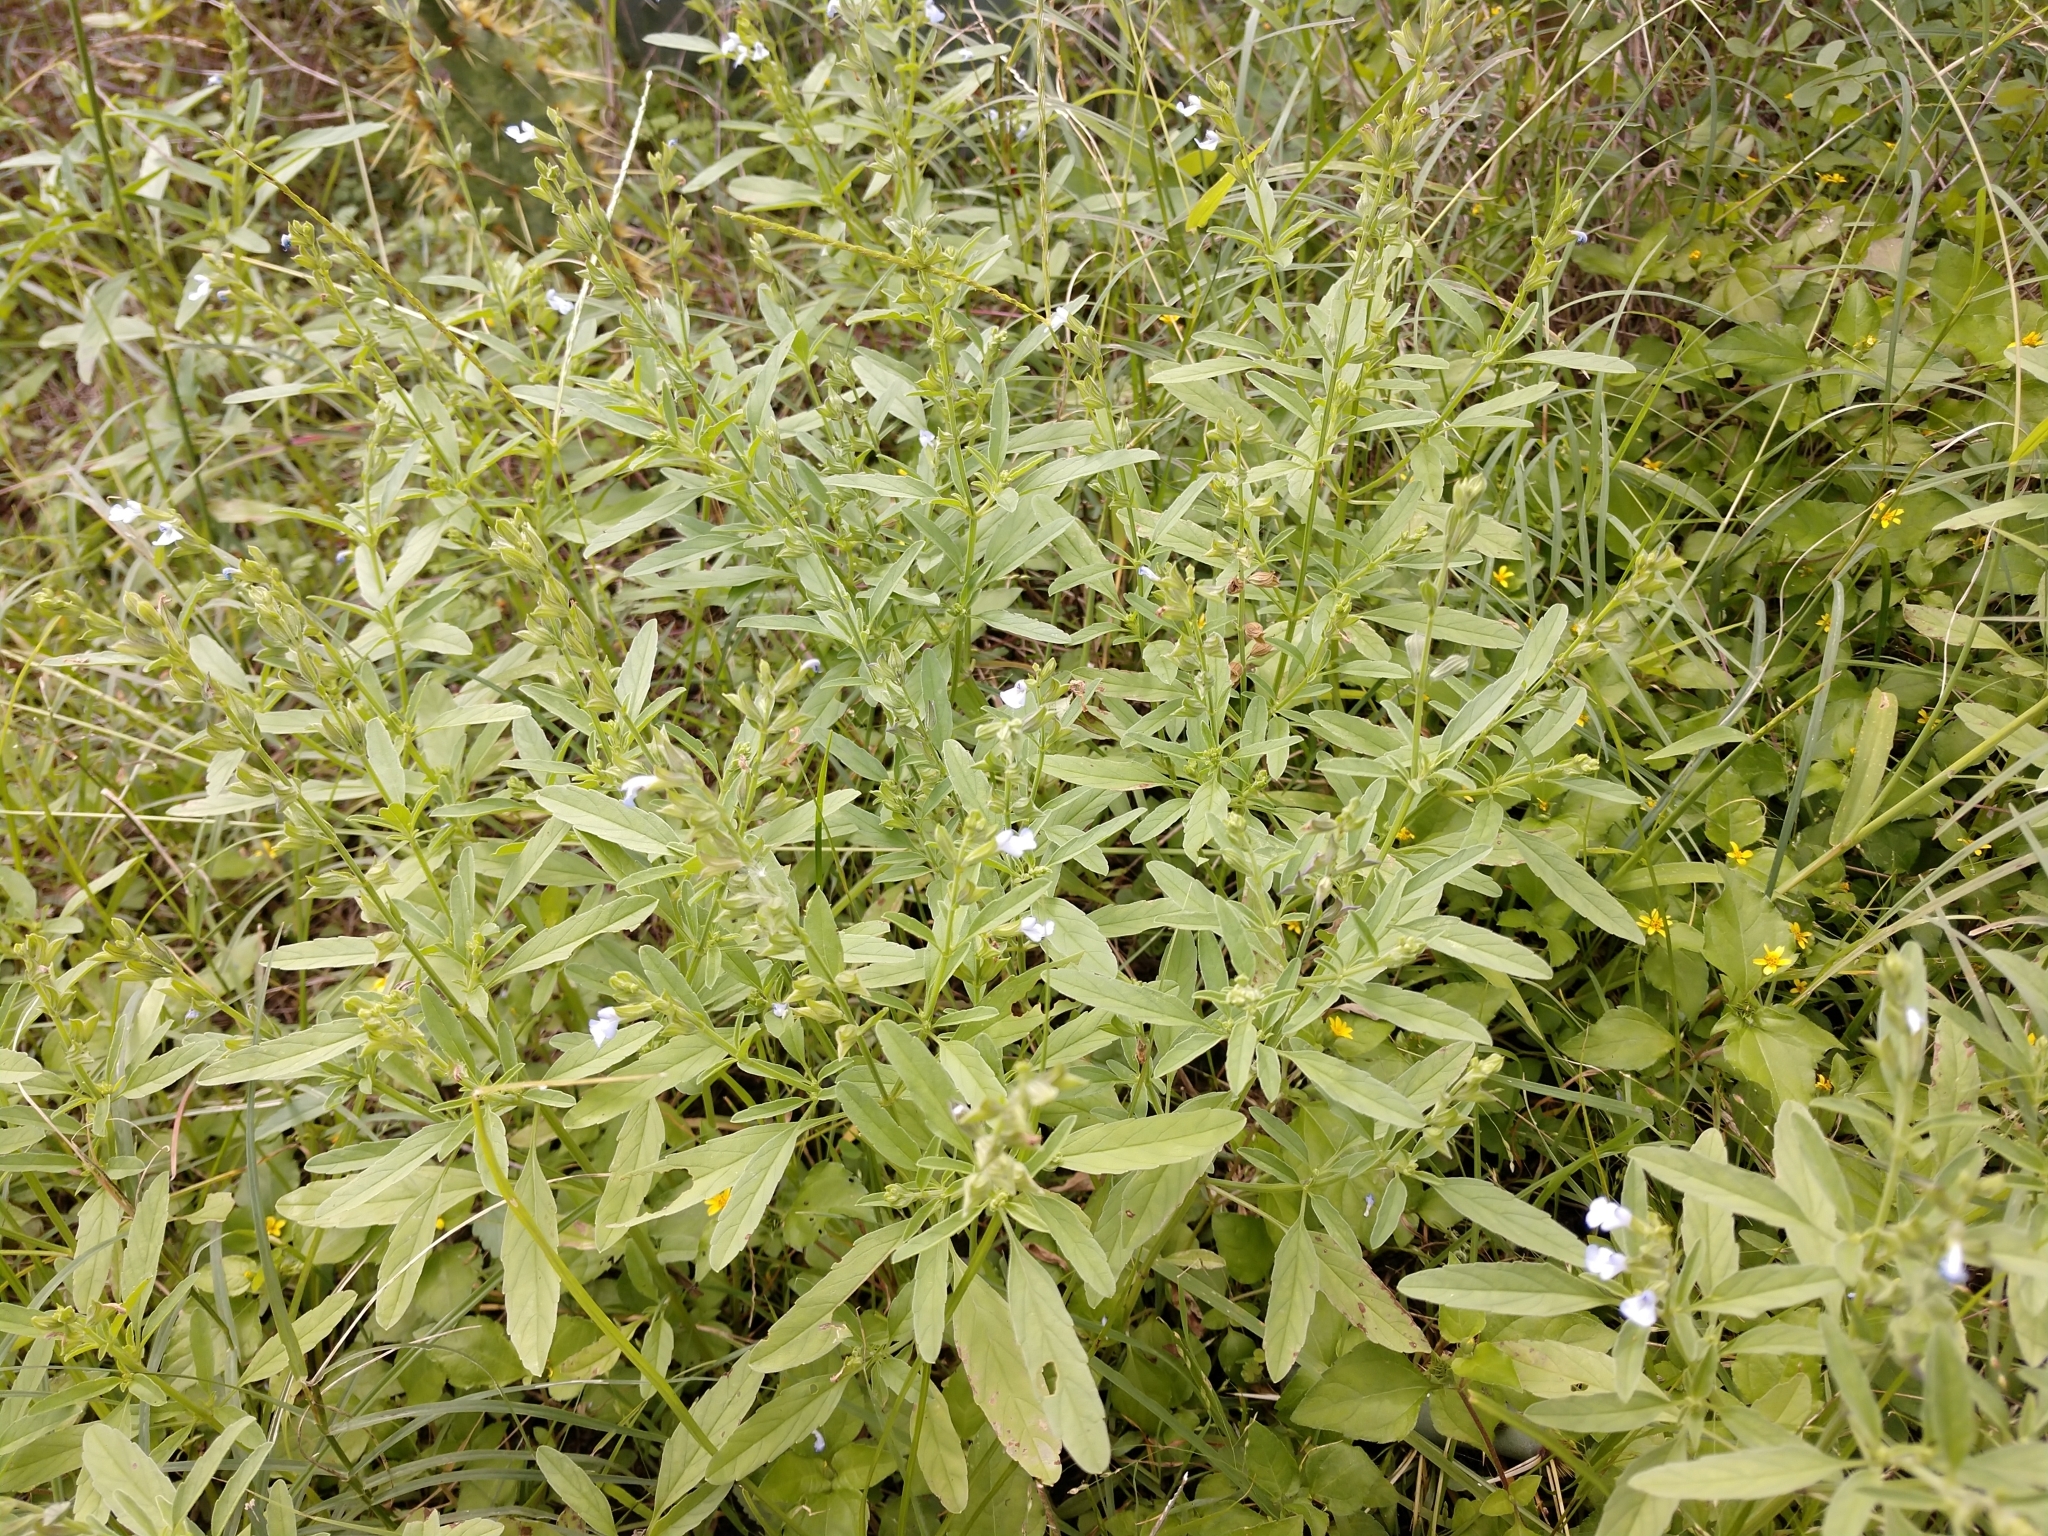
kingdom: Plantae
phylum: Tracheophyta
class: Magnoliopsida
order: Lamiales
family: Lamiaceae
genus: Salvia
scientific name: Salvia reflexa
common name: Mintweed
